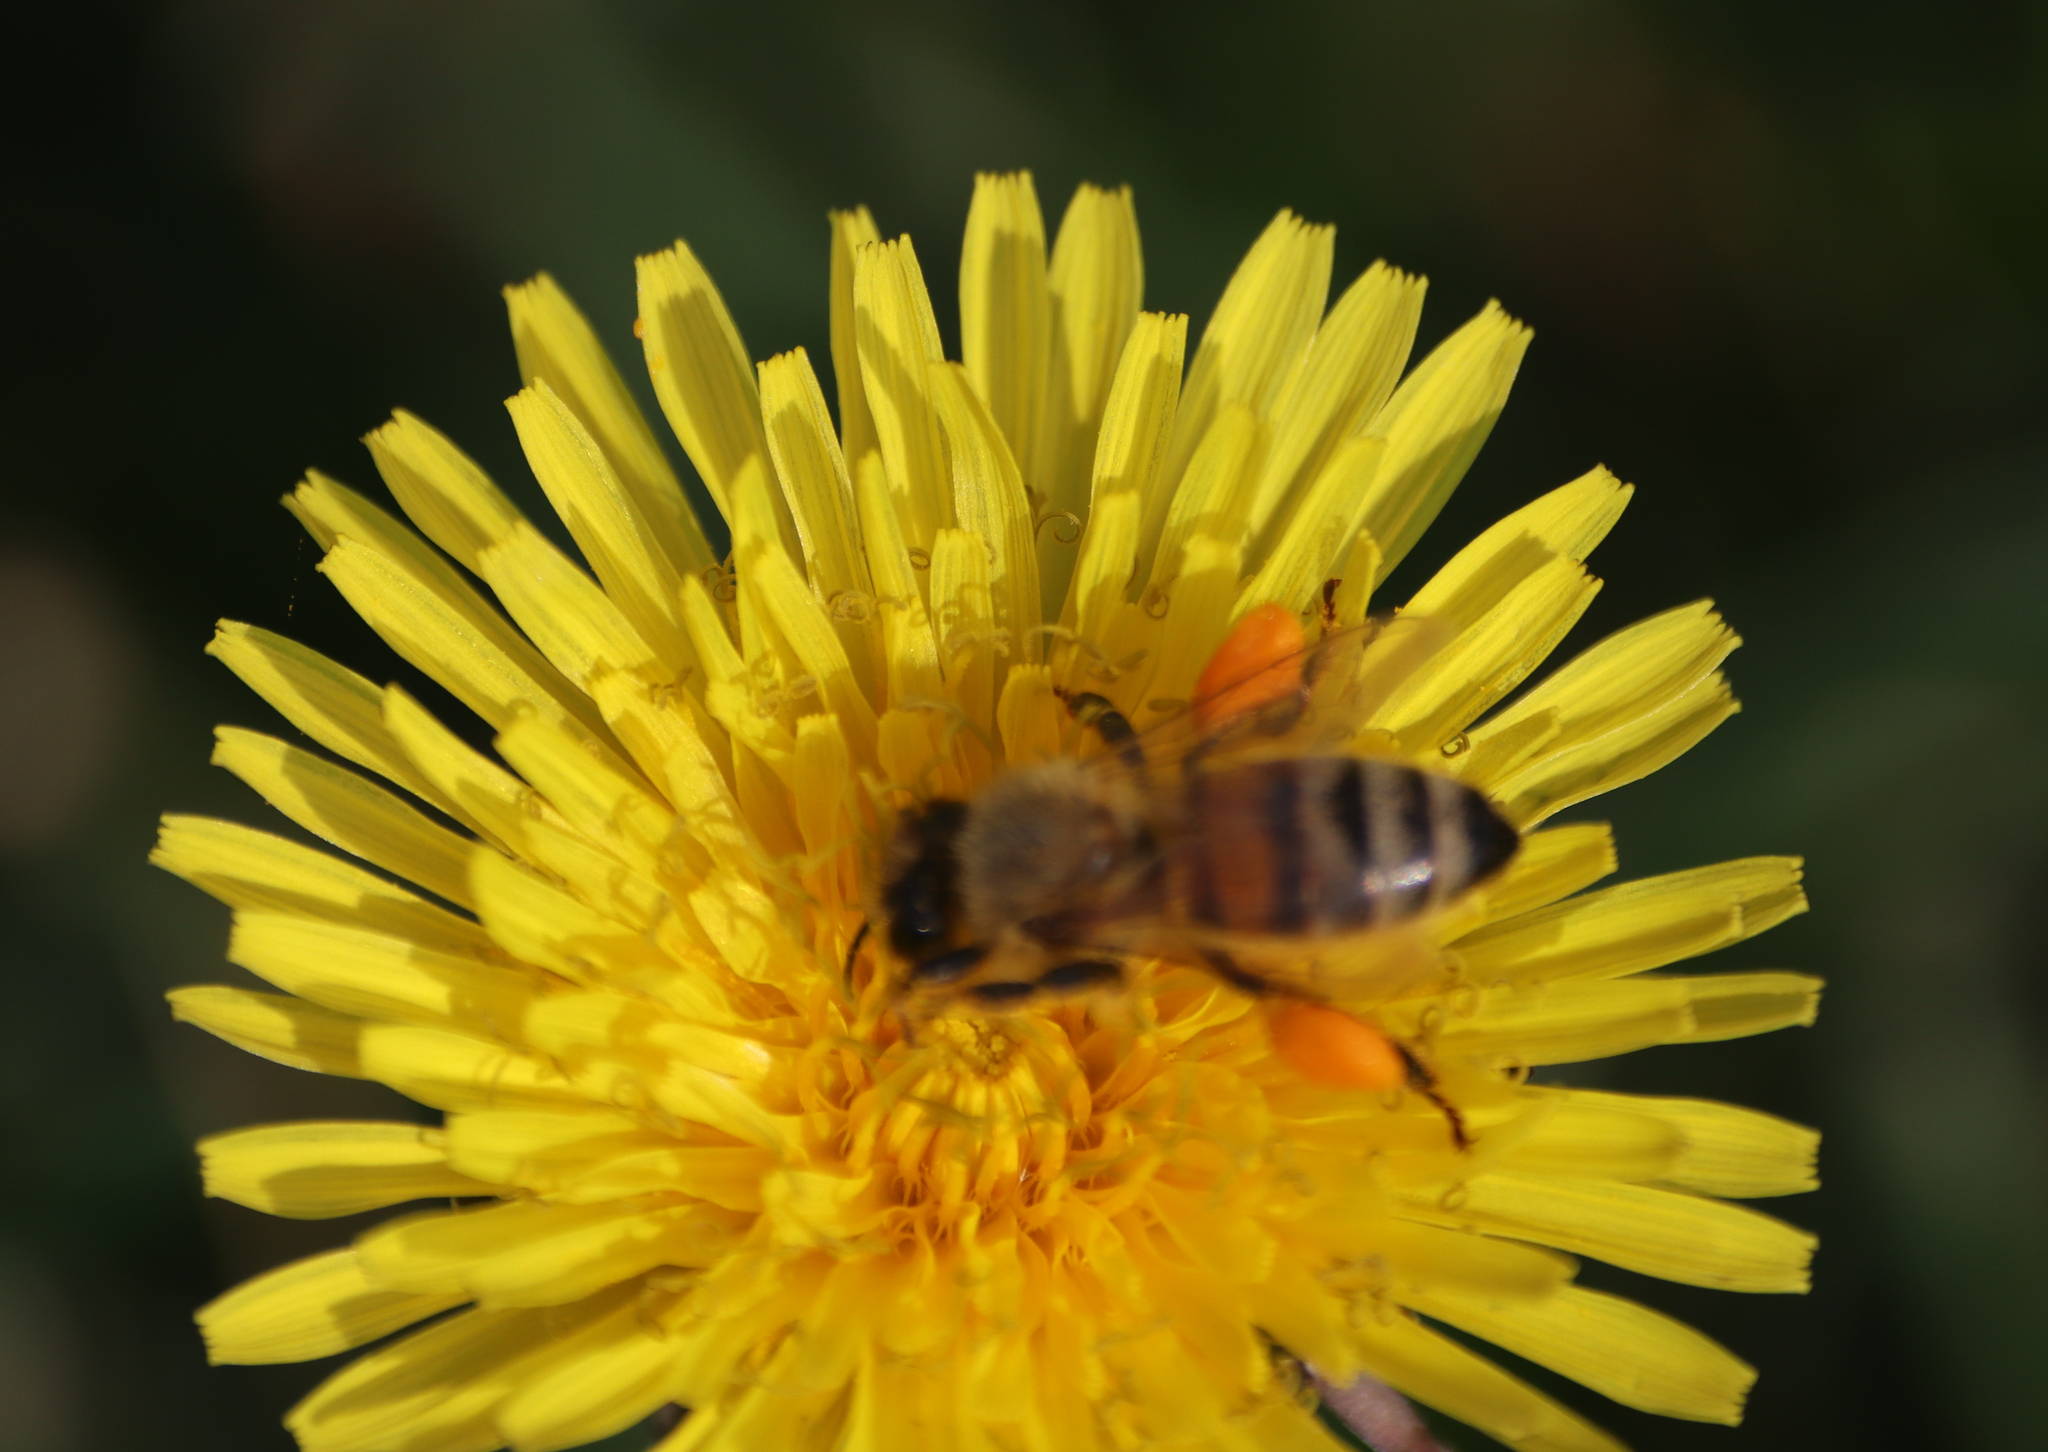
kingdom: Animalia
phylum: Arthropoda
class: Insecta
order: Hymenoptera
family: Apidae
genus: Apis
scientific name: Apis mellifera
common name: Honey bee
